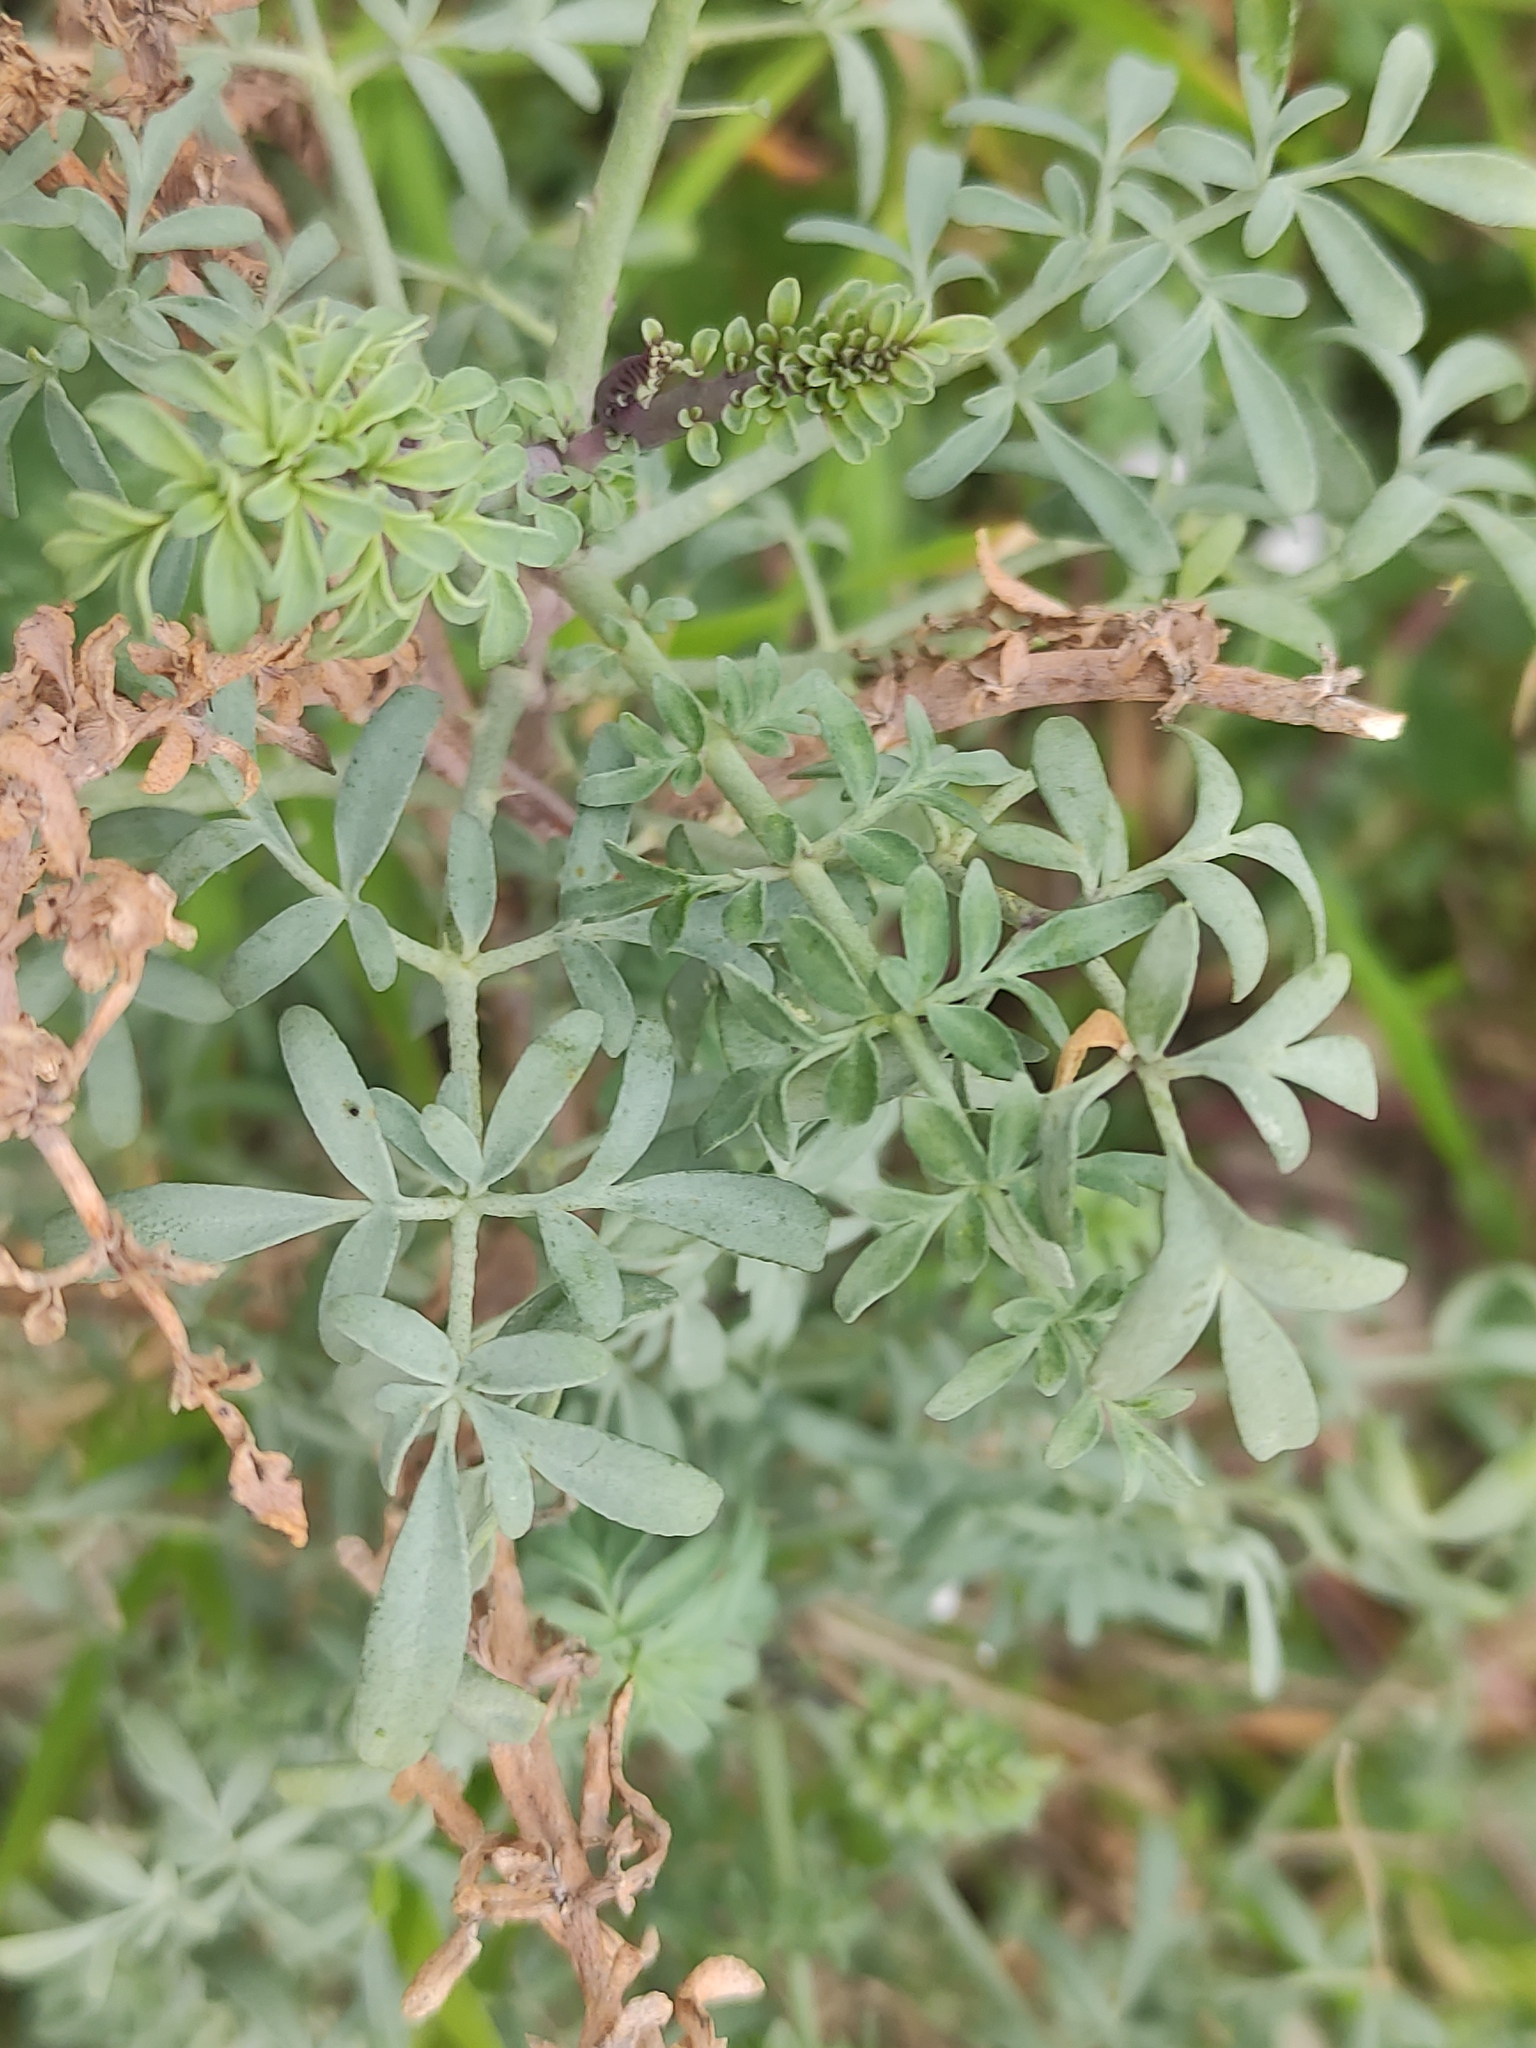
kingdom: Plantae
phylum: Tracheophyta
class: Magnoliopsida
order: Sapindales
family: Rutaceae
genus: Ruta
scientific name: Ruta angustifolia
